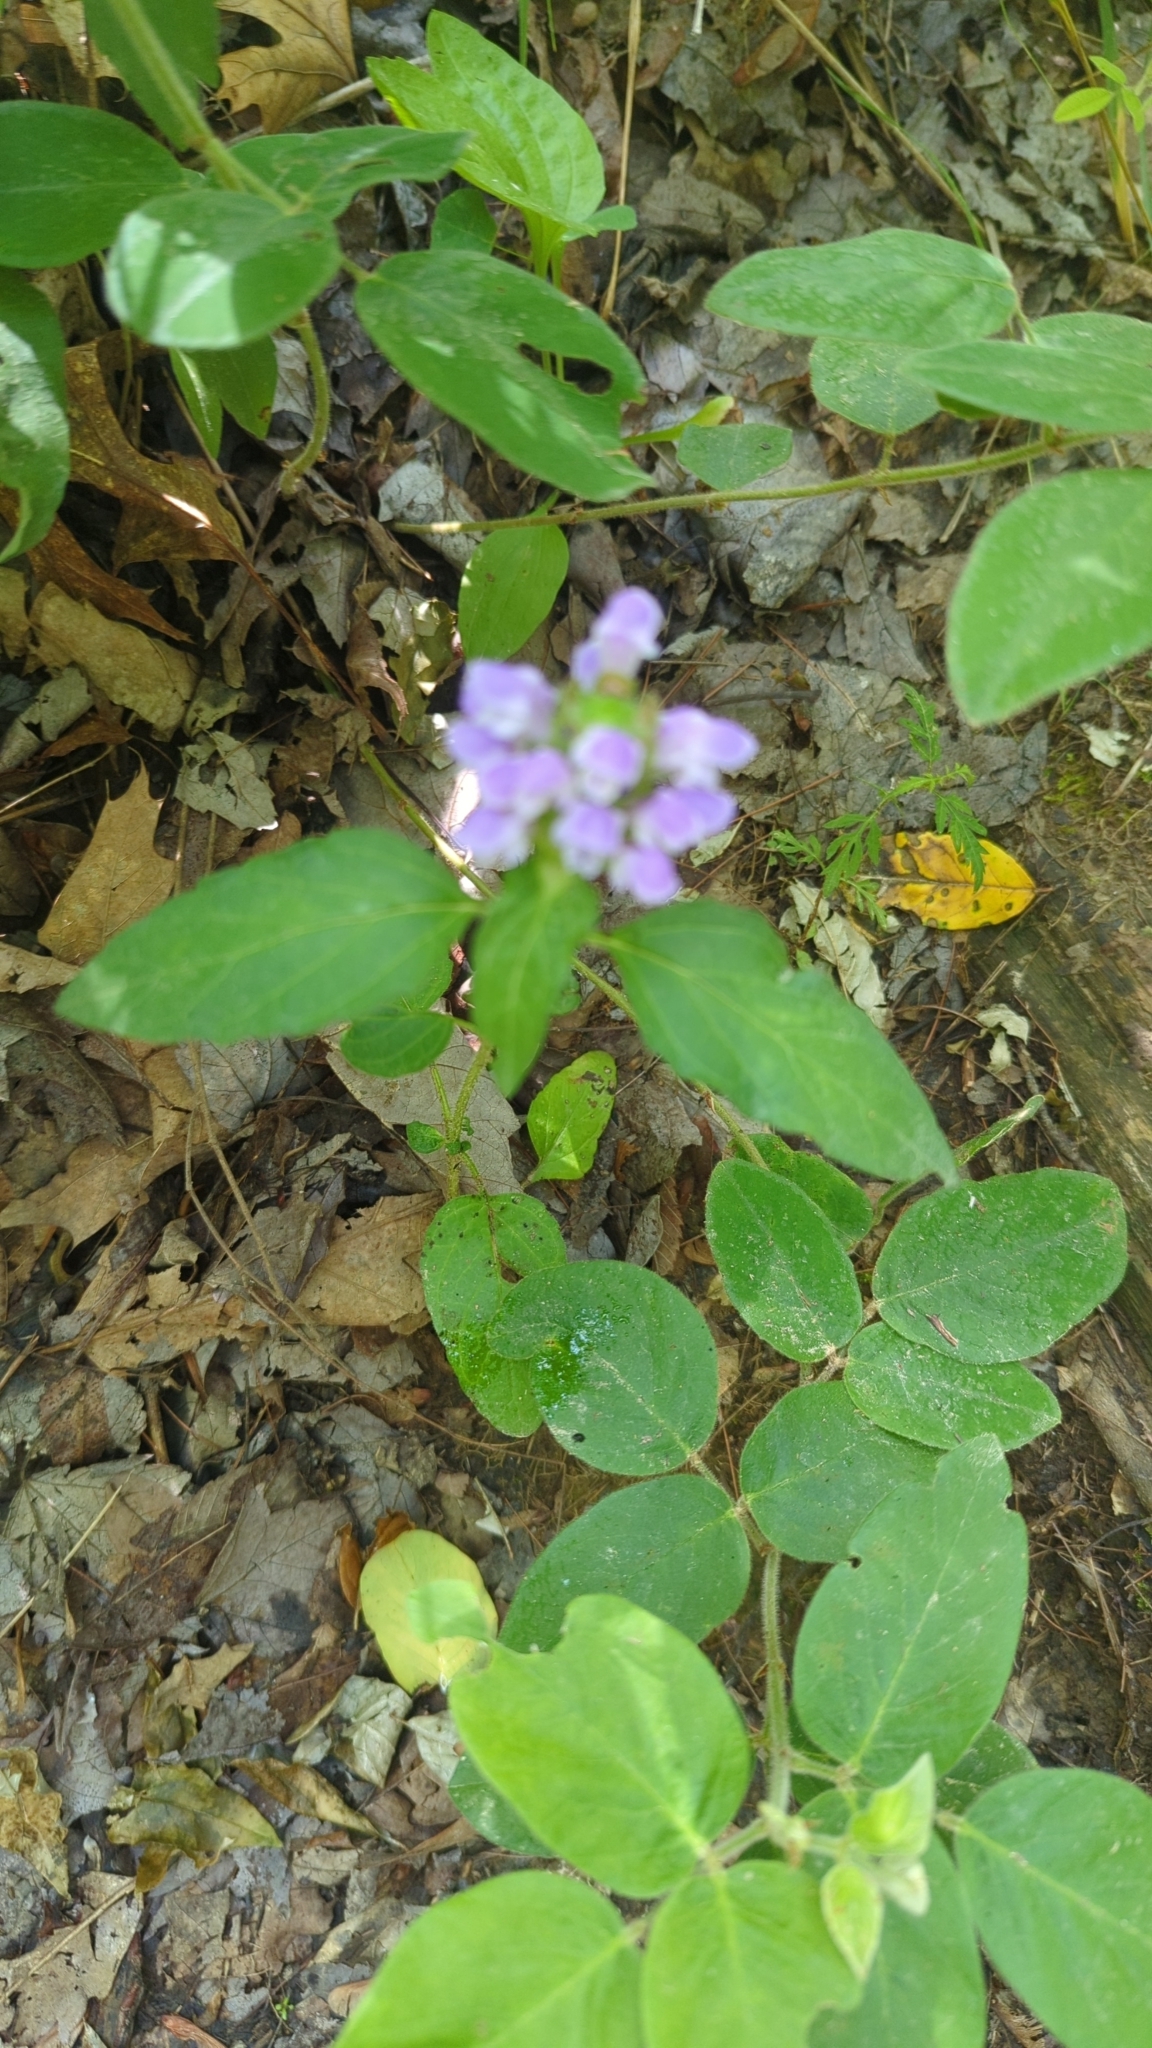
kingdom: Plantae
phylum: Tracheophyta
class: Magnoliopsida
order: Lamiales
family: Lamiaceae
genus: Prunella
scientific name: Prunella vulgaris
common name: Heal-all
